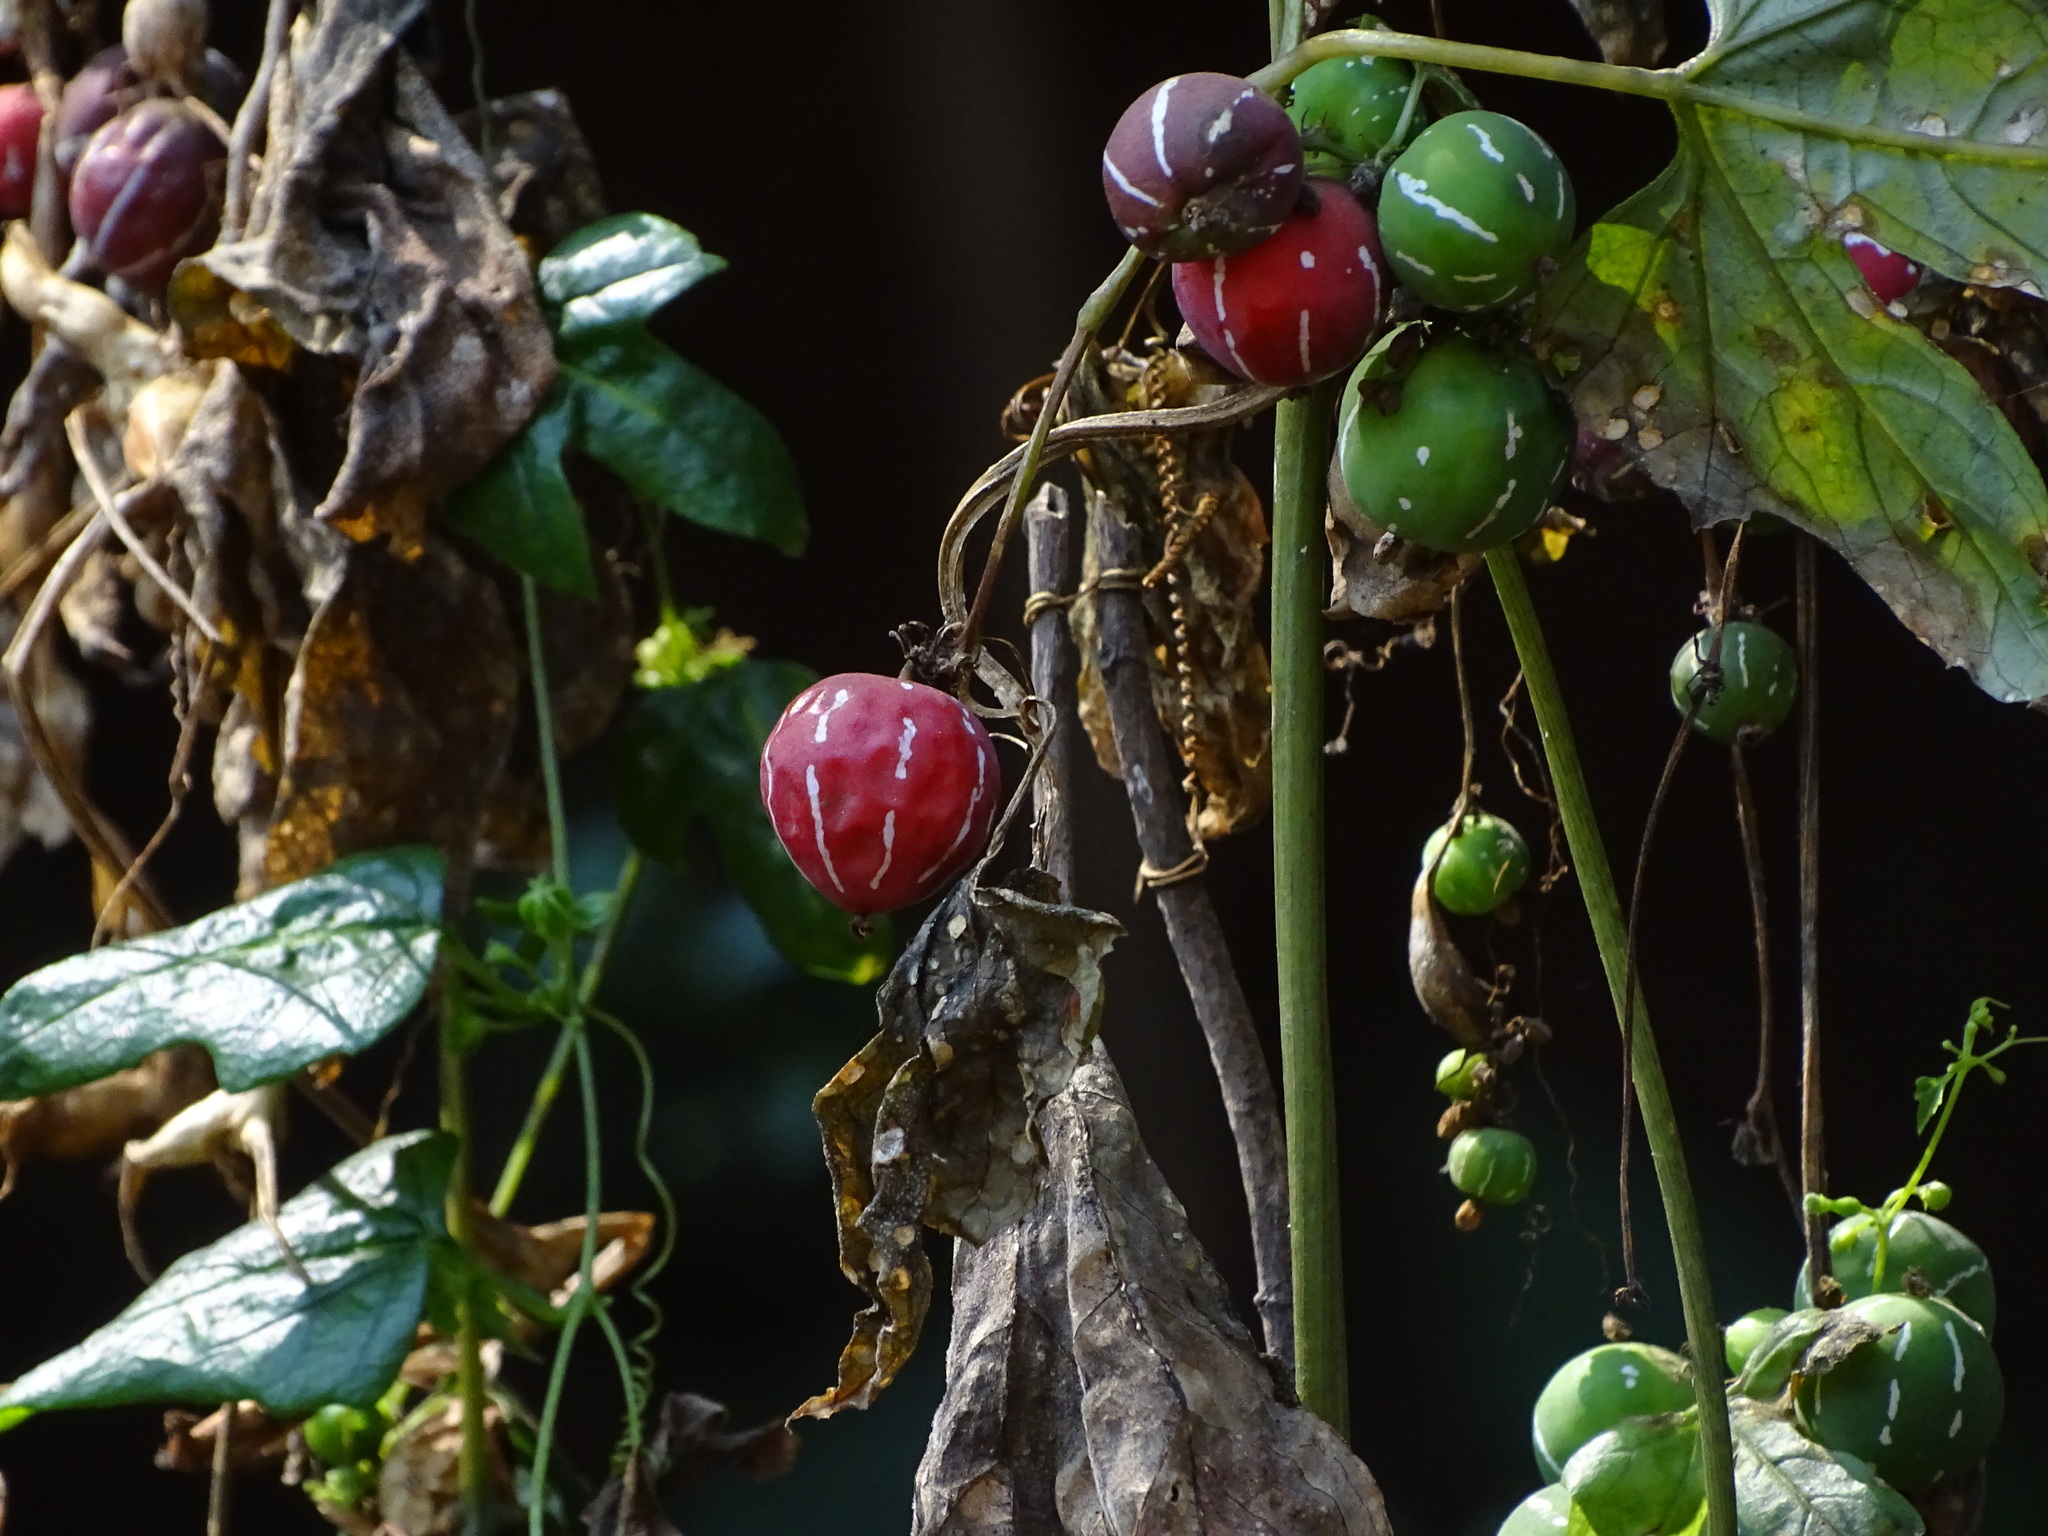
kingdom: Plantae
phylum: Tracheophyta
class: Magnoliopsida
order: Cucurbitales
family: Cucurbitaceae
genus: Diplocyclos
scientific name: Diplocyclos palmatus
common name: Striped-cucumber
